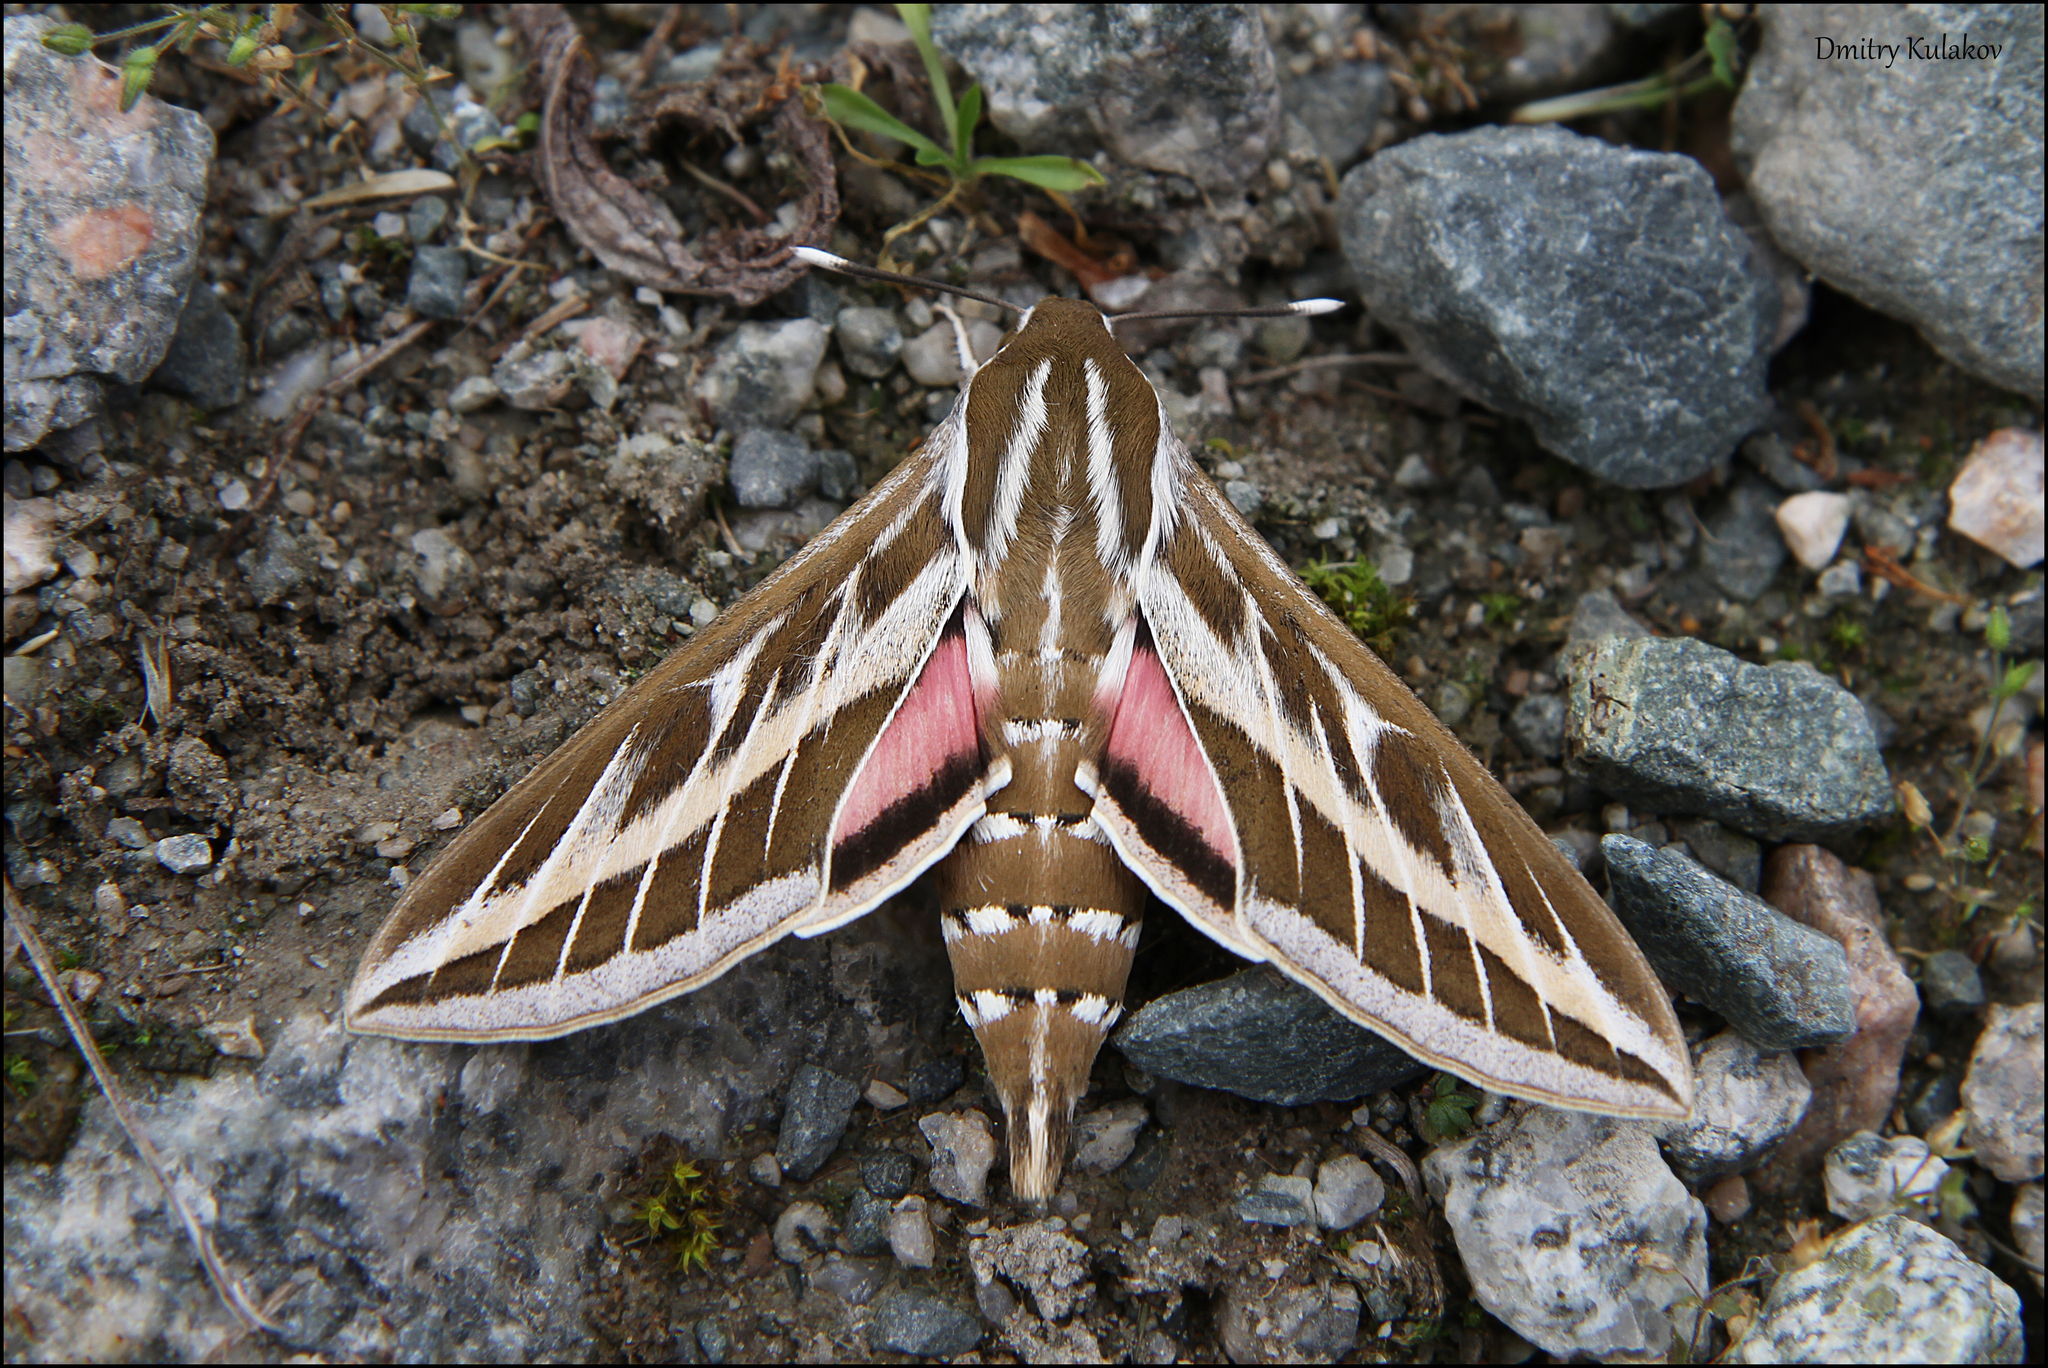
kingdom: Animalia
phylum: Arthropoda
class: Insecta
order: Lepidoptera
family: Sphingidae
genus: Hyles
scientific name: Hyles livornica
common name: Striped hawk-moth
